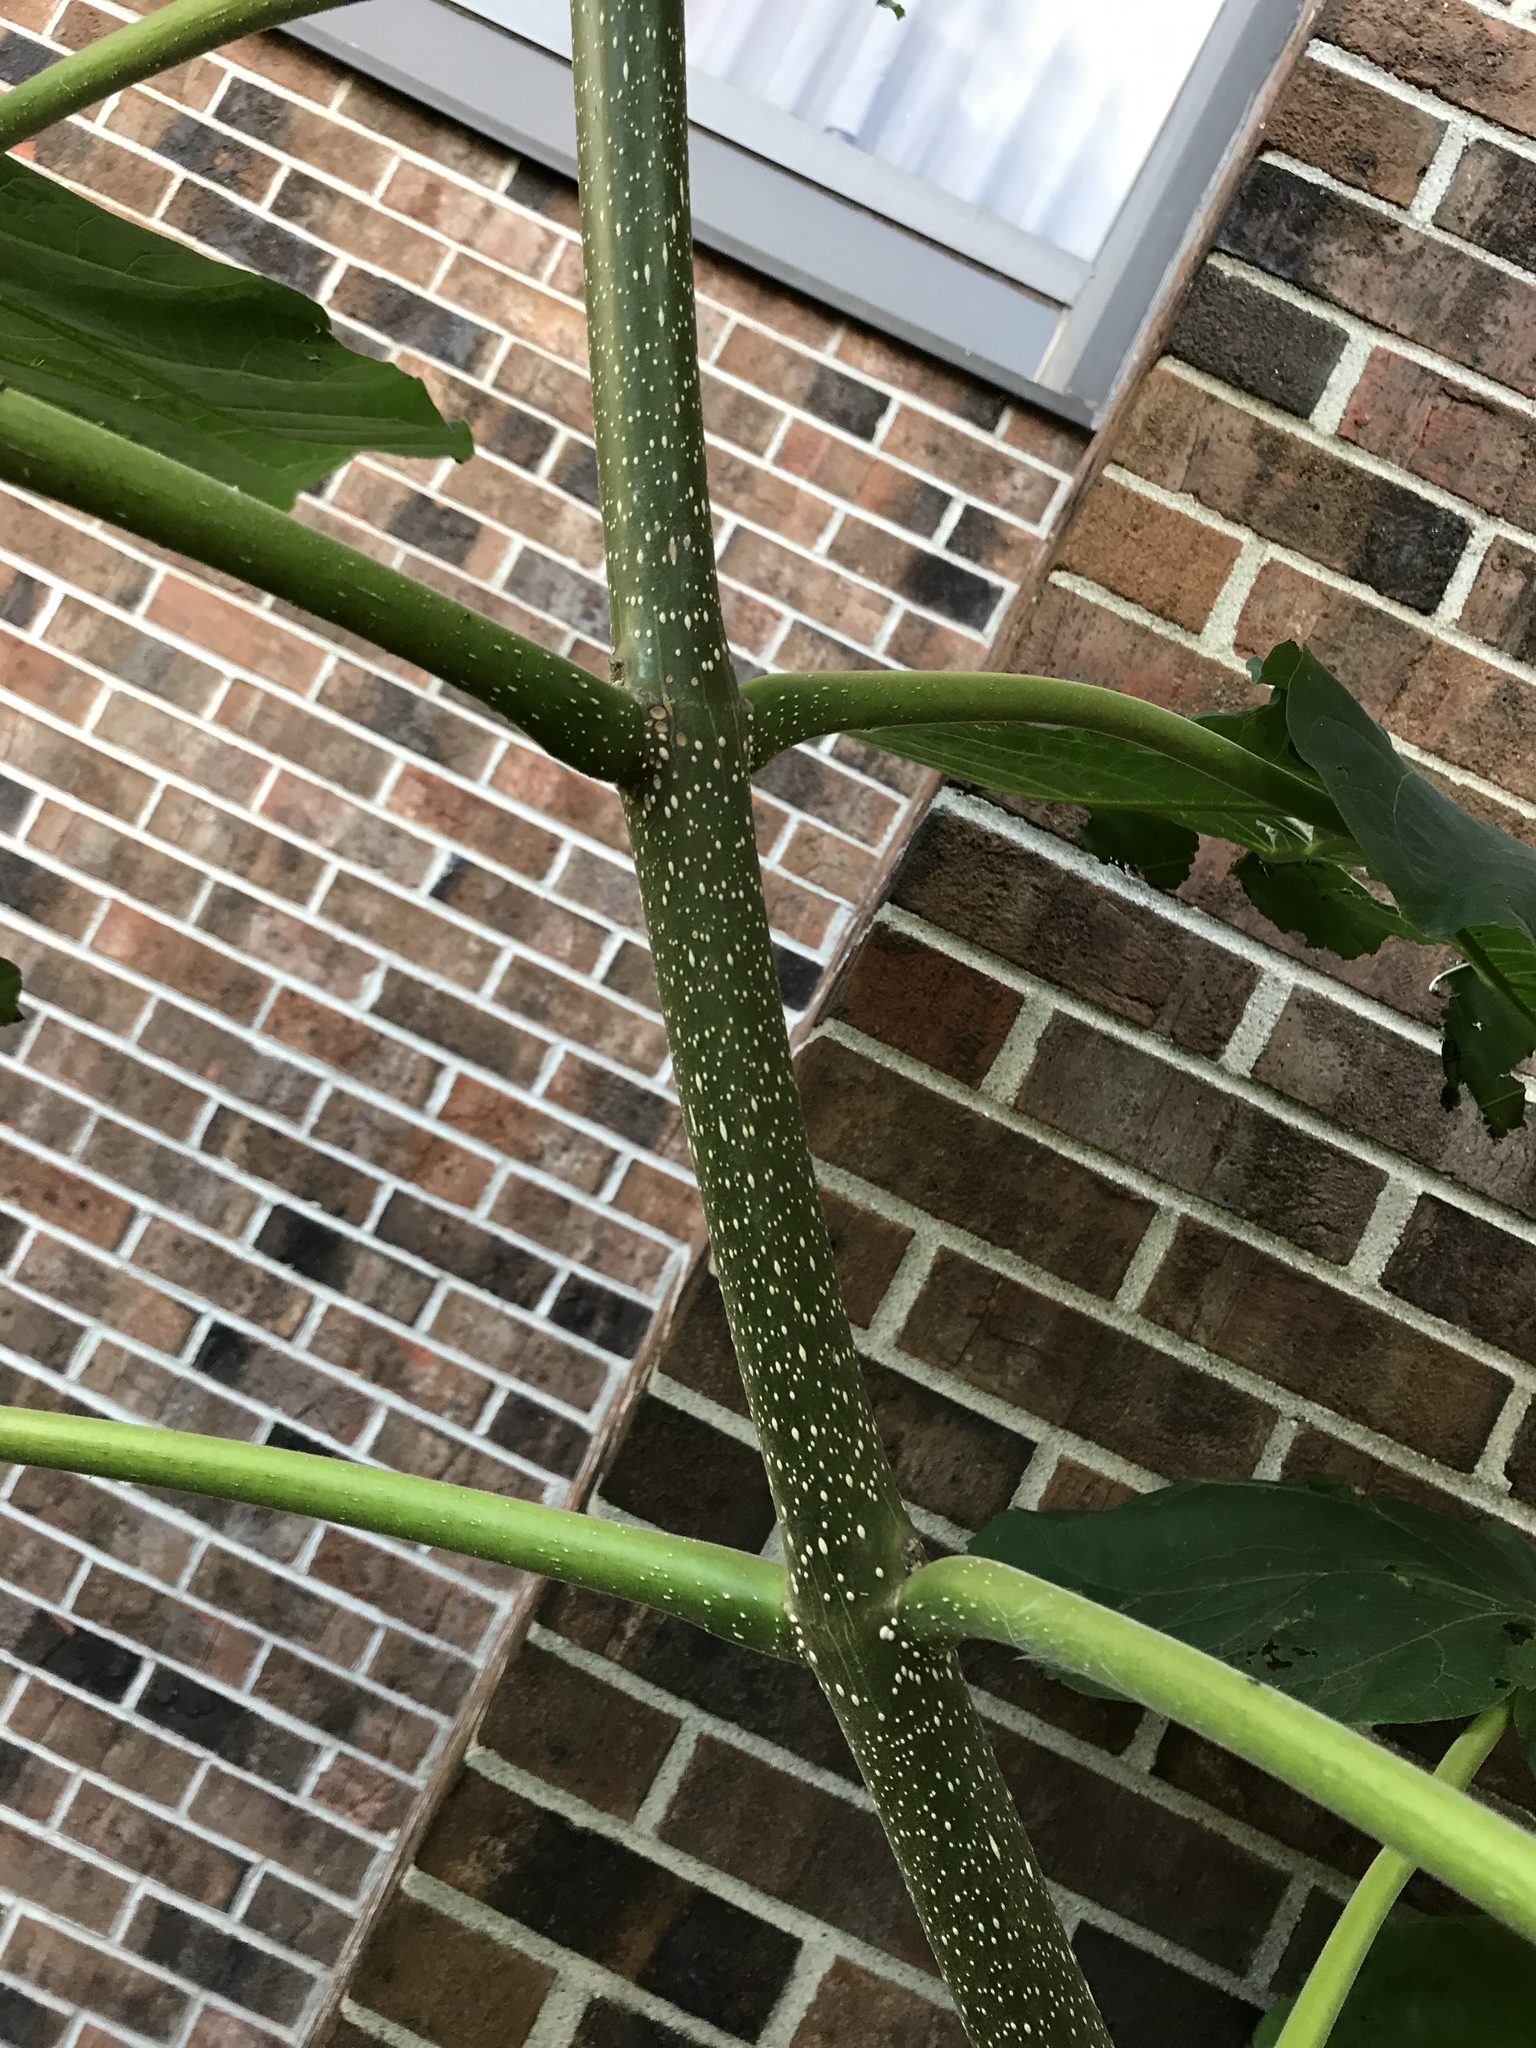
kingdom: Plantae
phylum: Tracheophyta
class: Magnoliopsida
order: Lamiales
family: Paulowniaceae
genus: Paulownia
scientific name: Paulownia tomentosa
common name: Foxglove-tree
